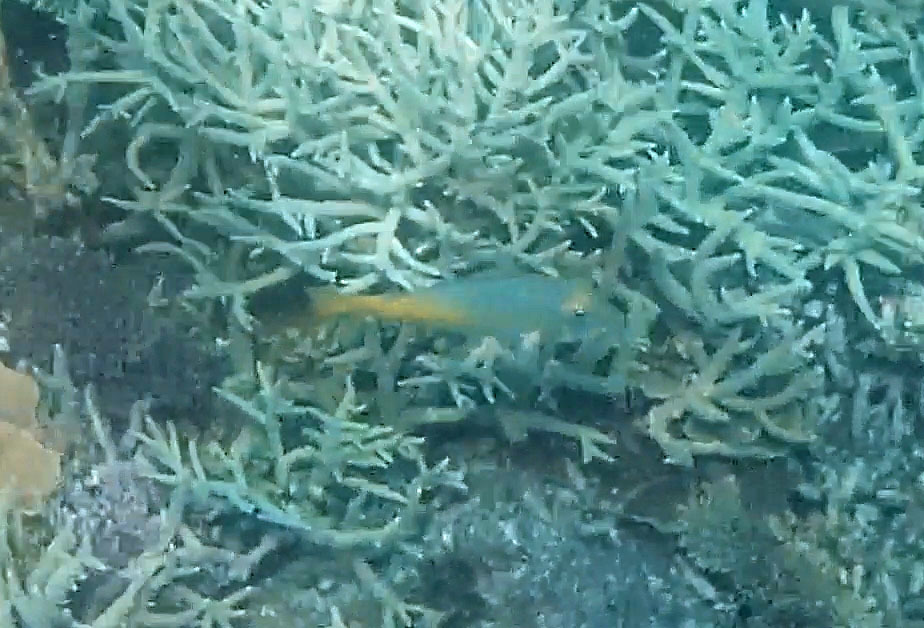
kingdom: Animalia
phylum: Chordata
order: Perciformes
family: Lethrinidae
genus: Lethrinus
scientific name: Lethrinus atkinsoni
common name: Pacific yellowtail emperor
